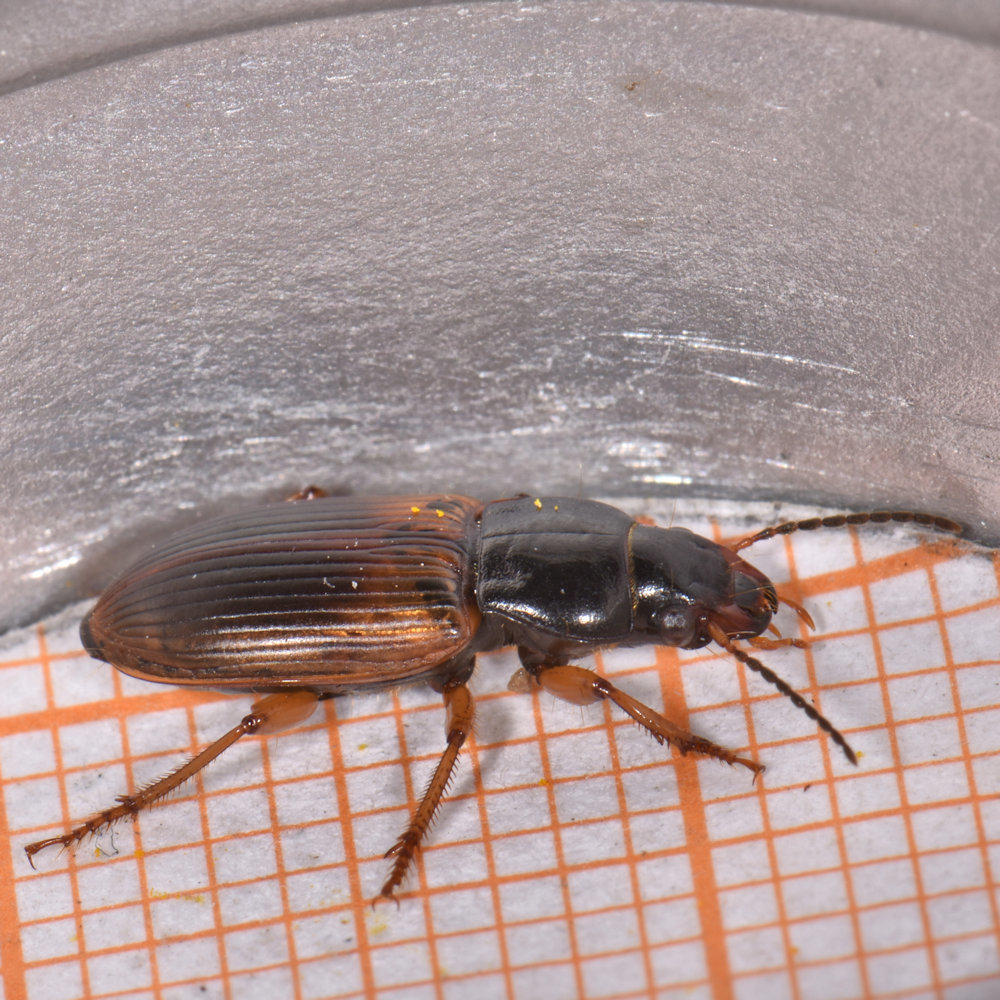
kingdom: Animalia
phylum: Arthropoda
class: Insecta
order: Coleoptera
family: Carabidae
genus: Anisodactylus
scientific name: Anisodactylus sanctaecrucis
